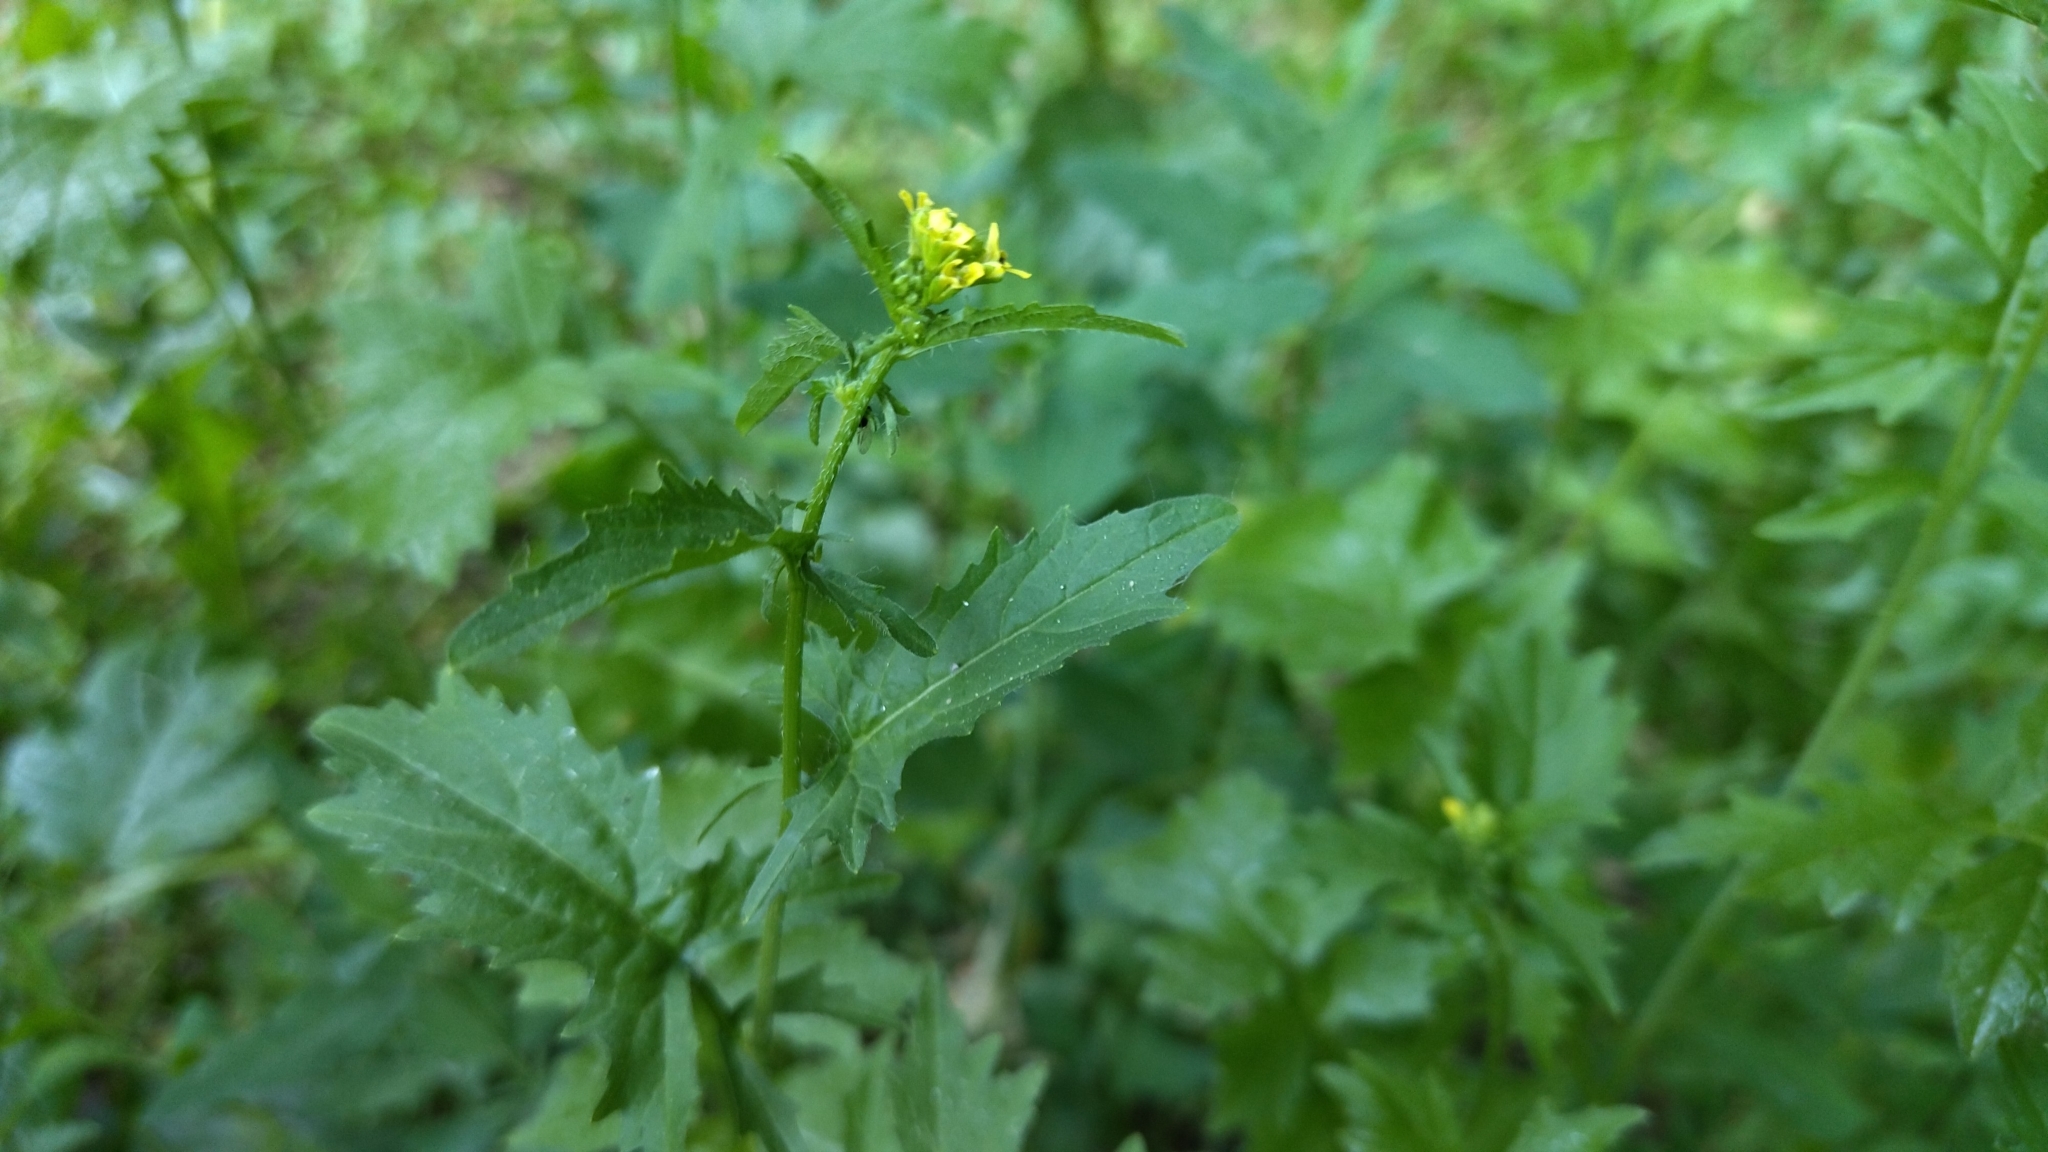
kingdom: Plantae
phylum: Tracheophyta
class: Magnoliopsida
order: Brassicales
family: Brassicaceae
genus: Sisymbrium
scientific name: Sisymbrium officinale
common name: Hedge mustard
